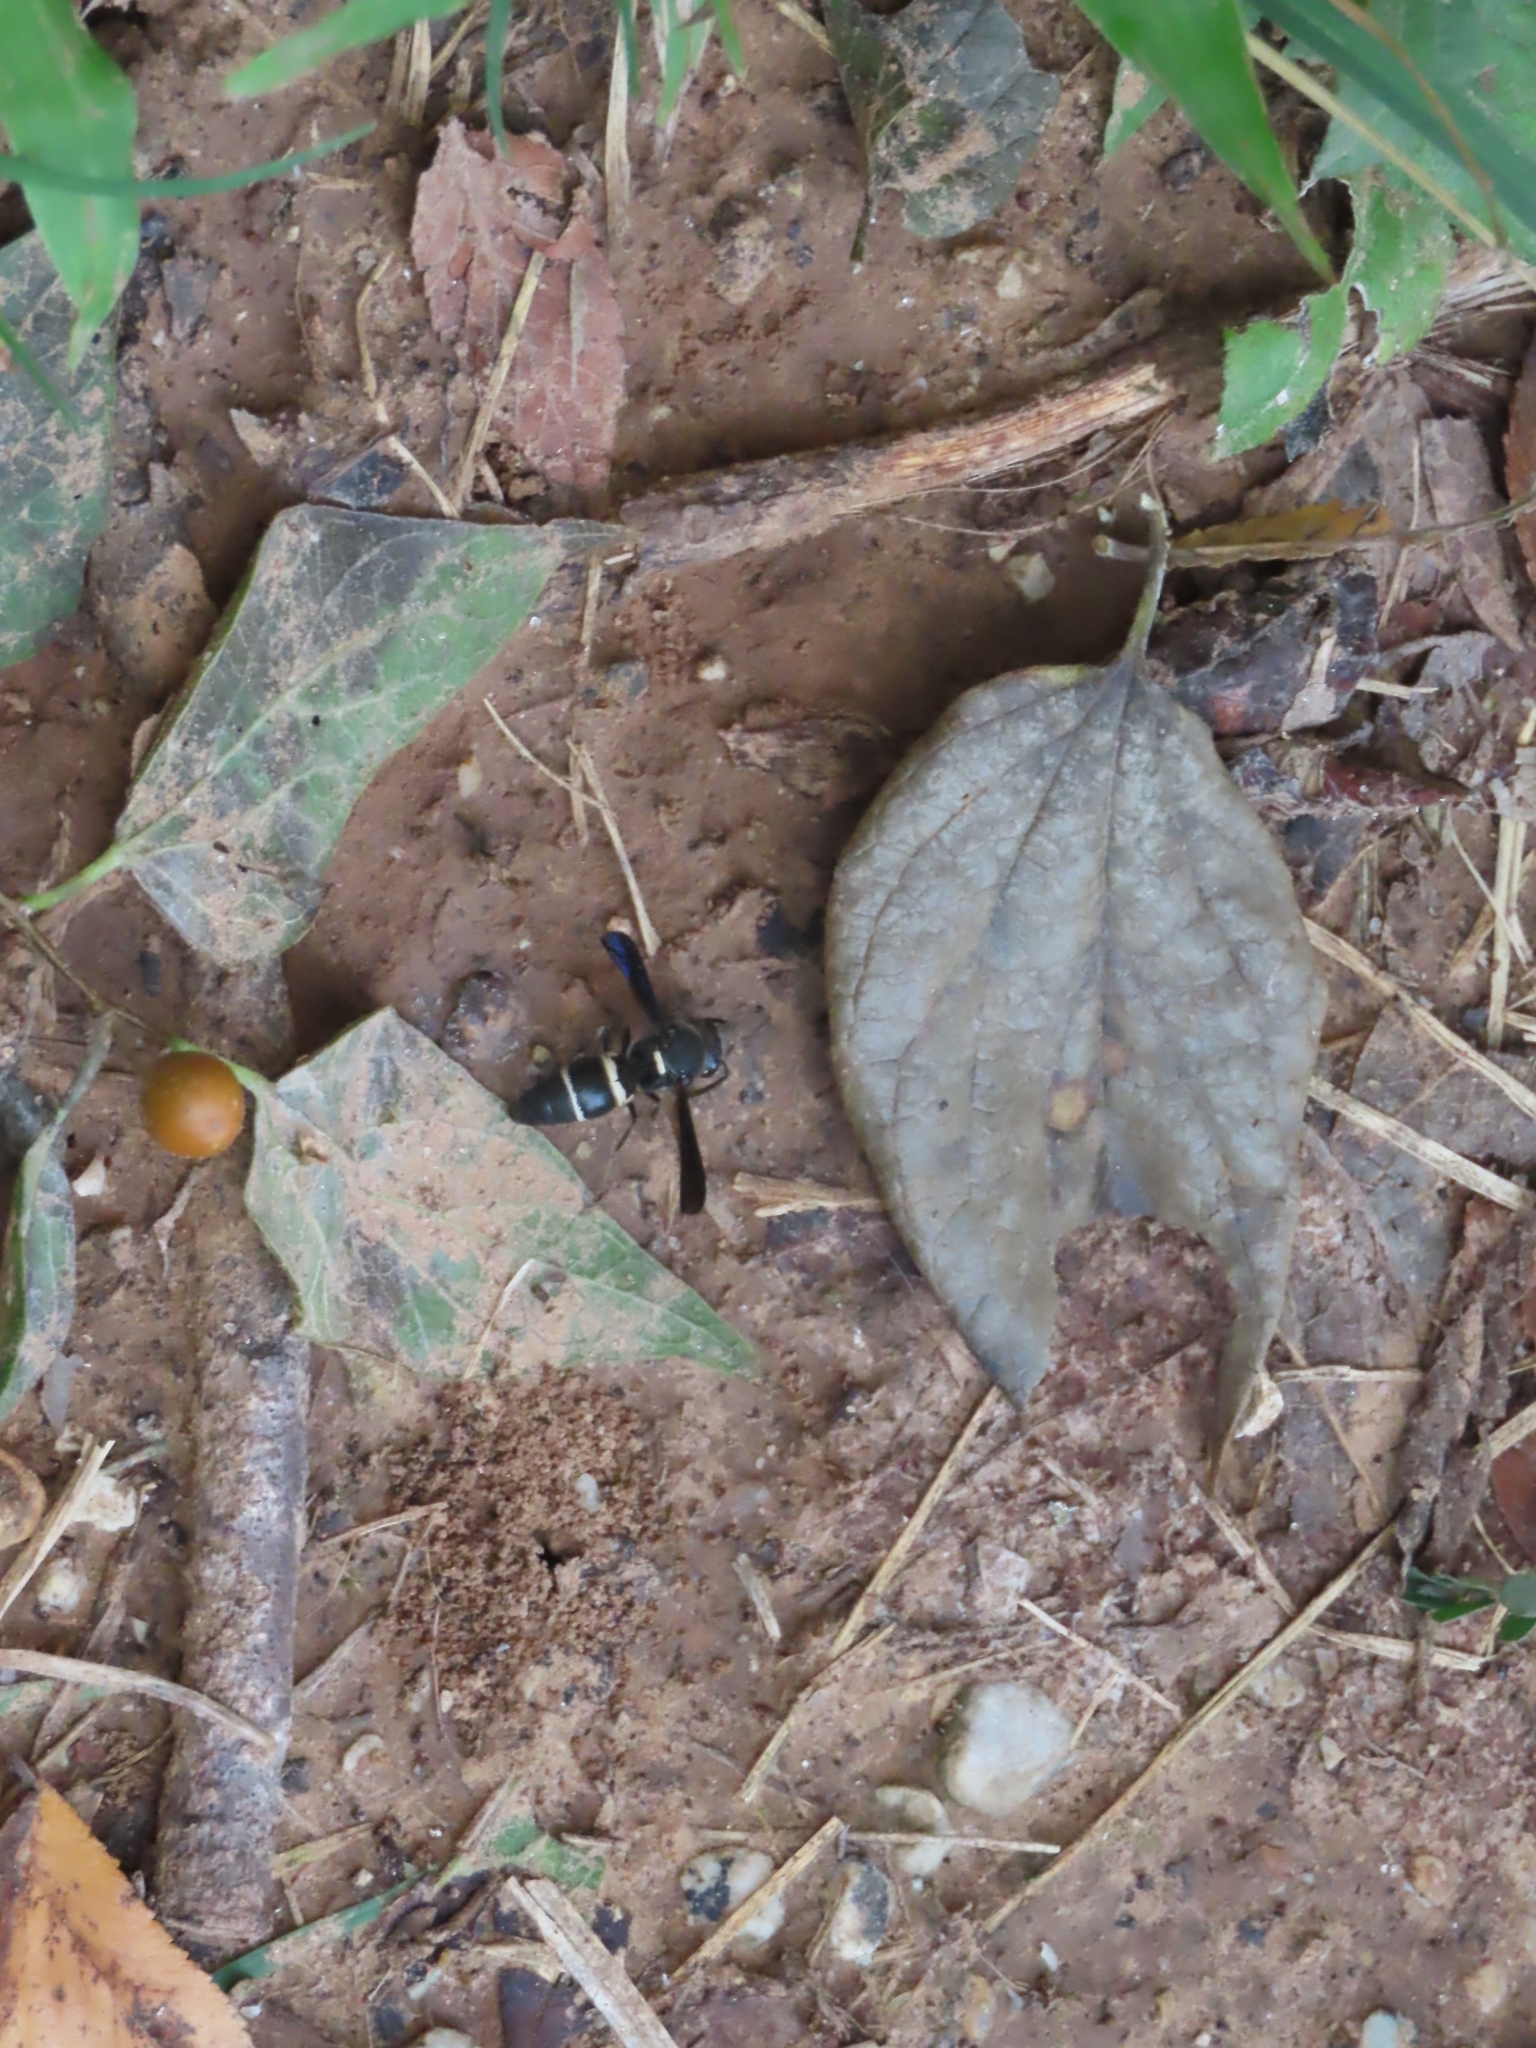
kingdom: Animalia
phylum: Arthropoda
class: Insecta
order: Hymenoptera
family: Eumenidae
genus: Euodynerus
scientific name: Euodynerus megaera
